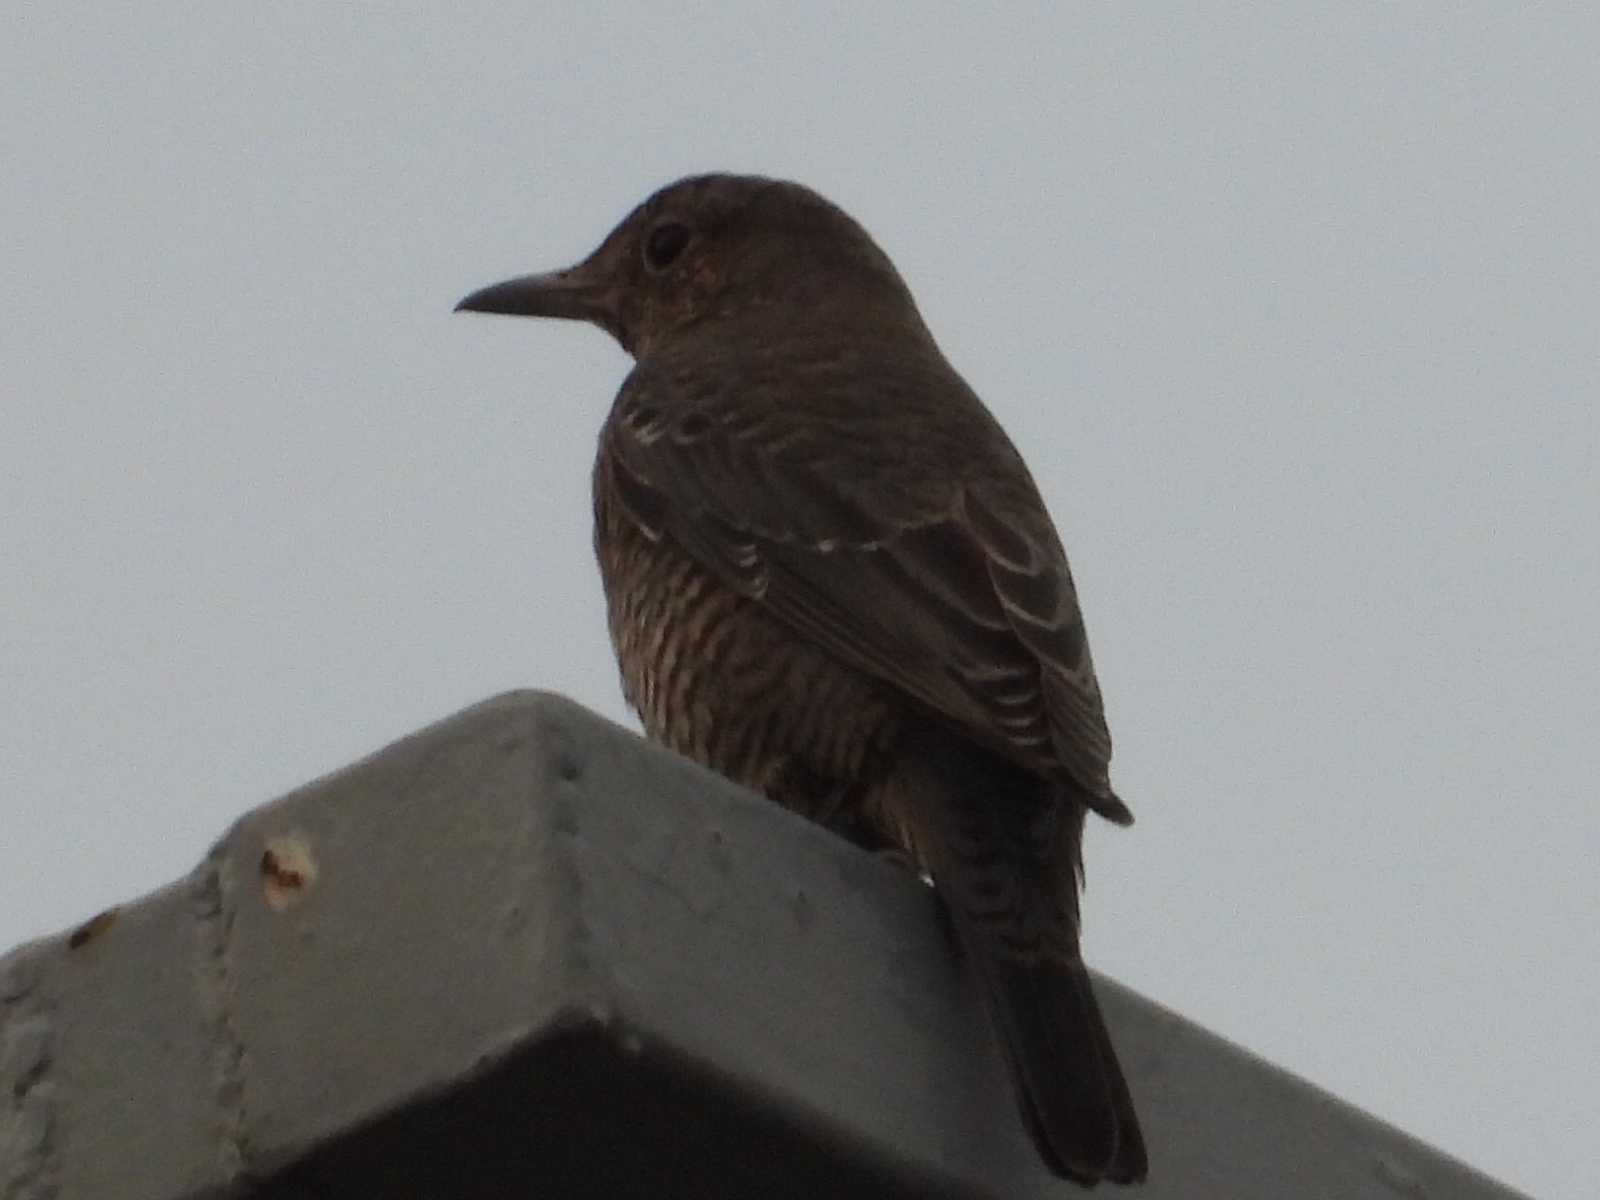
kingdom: Animalia
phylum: Chordata
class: Aves
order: Passeriformes
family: Muscicapidae
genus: Monticola
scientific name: Monticola solitarius
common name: Blue rock thrush
